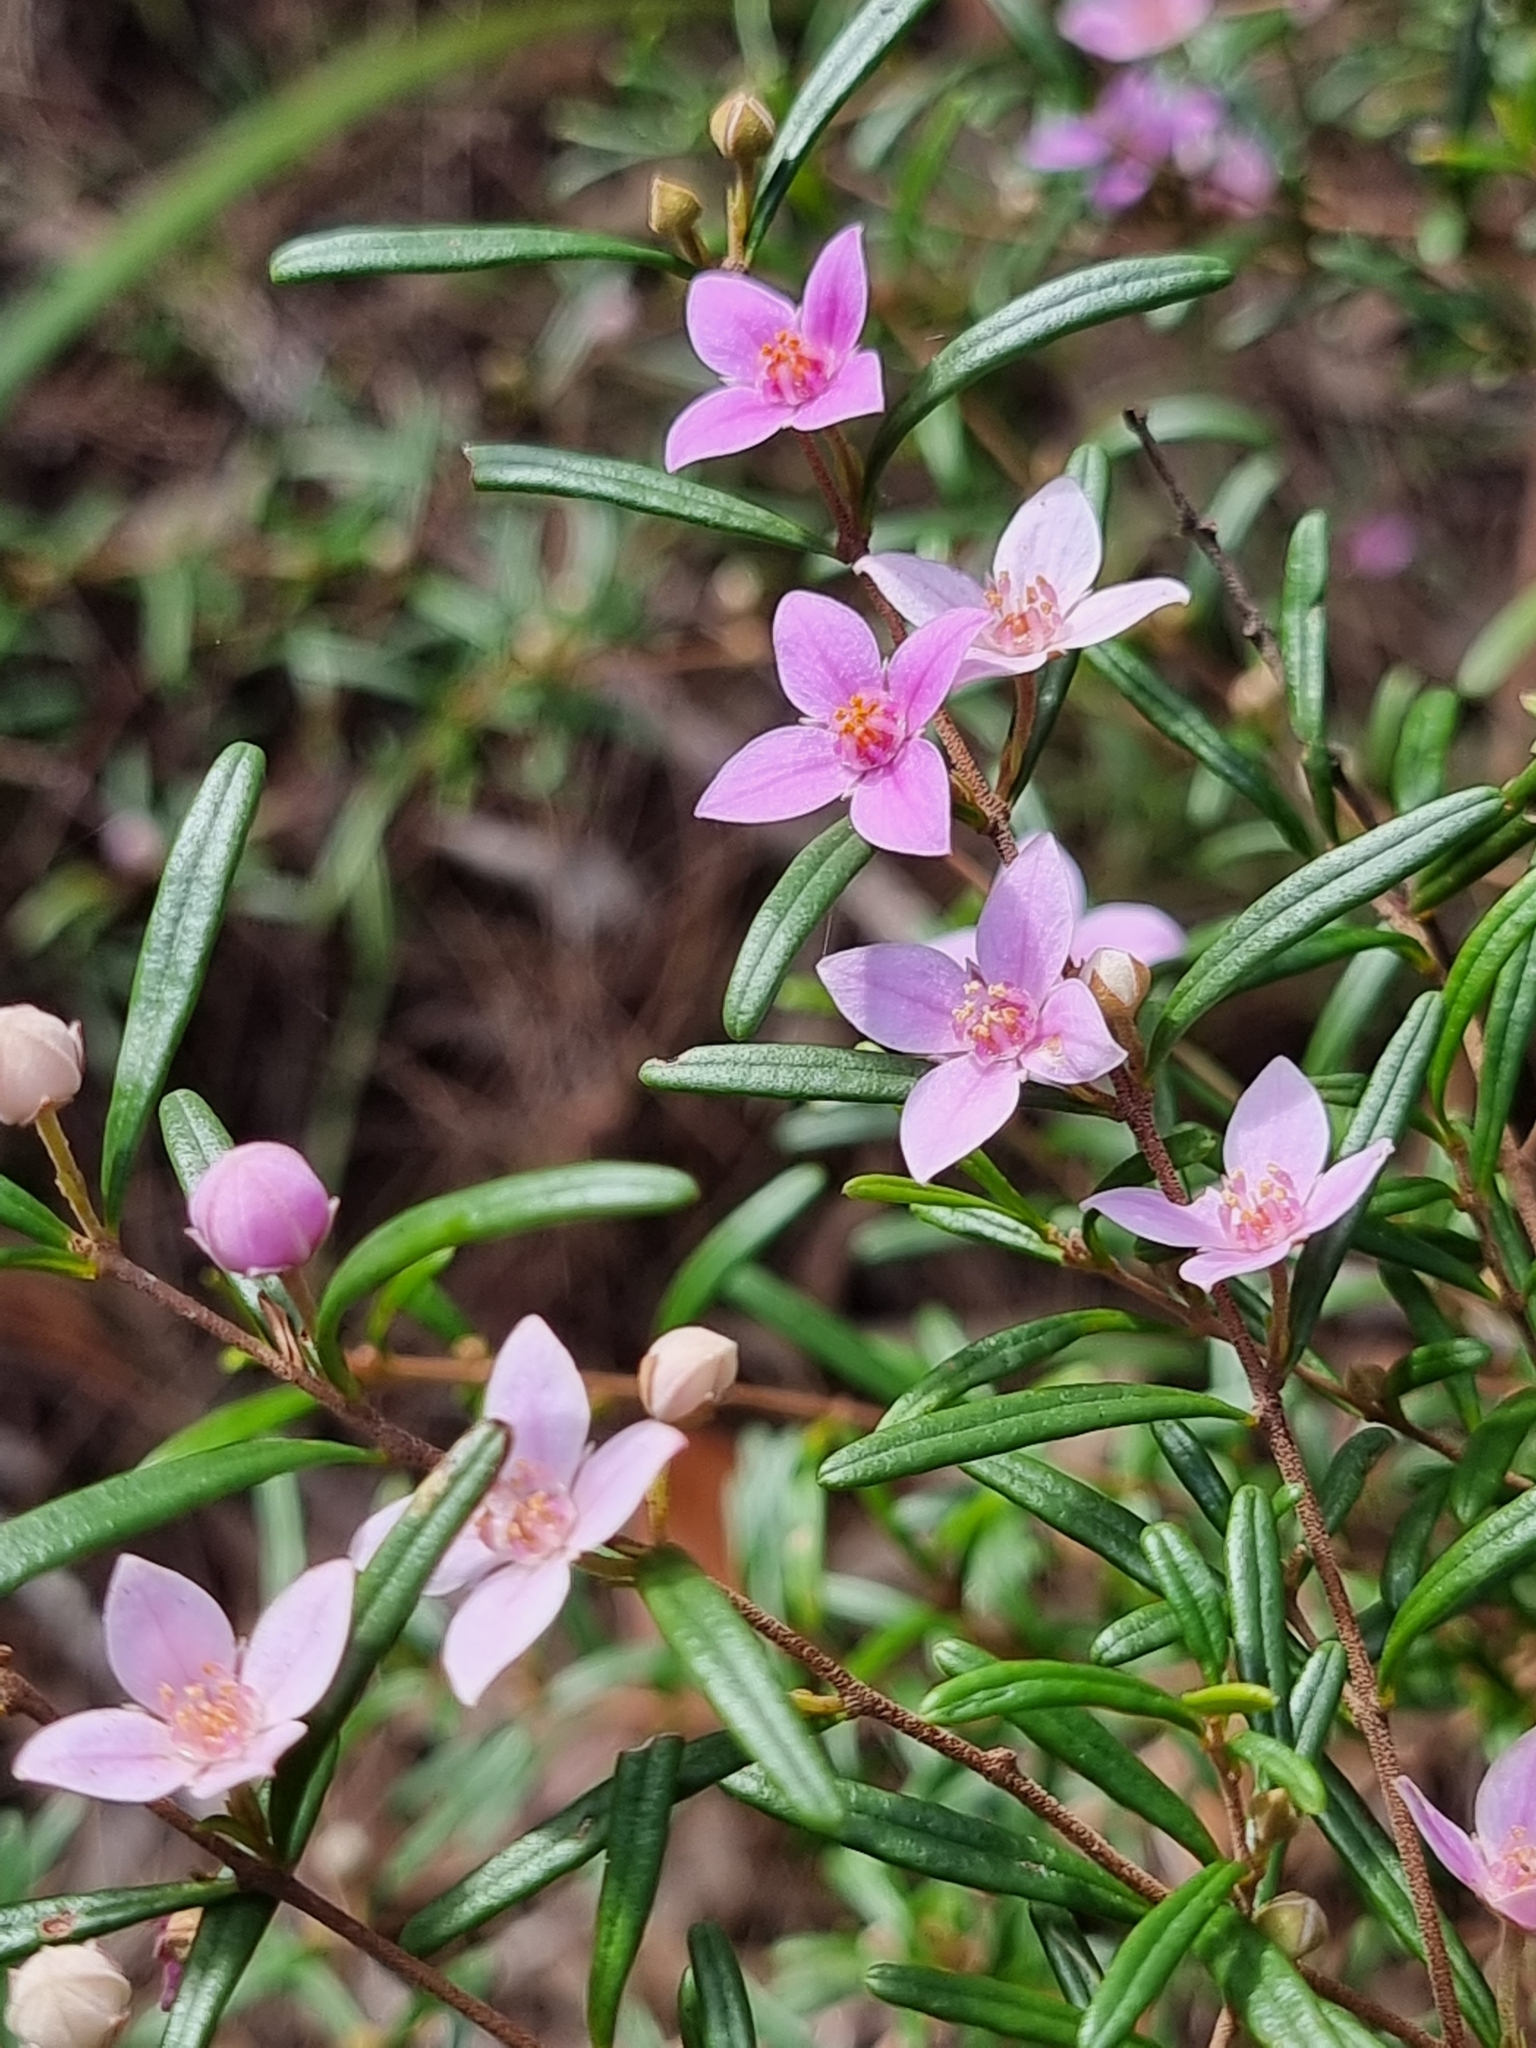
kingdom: Plantae
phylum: Tracheophyta
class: Magnoliopsida
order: Sapindales
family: Rutaceae
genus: Boronia
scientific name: Boronia rosmarinifolia
